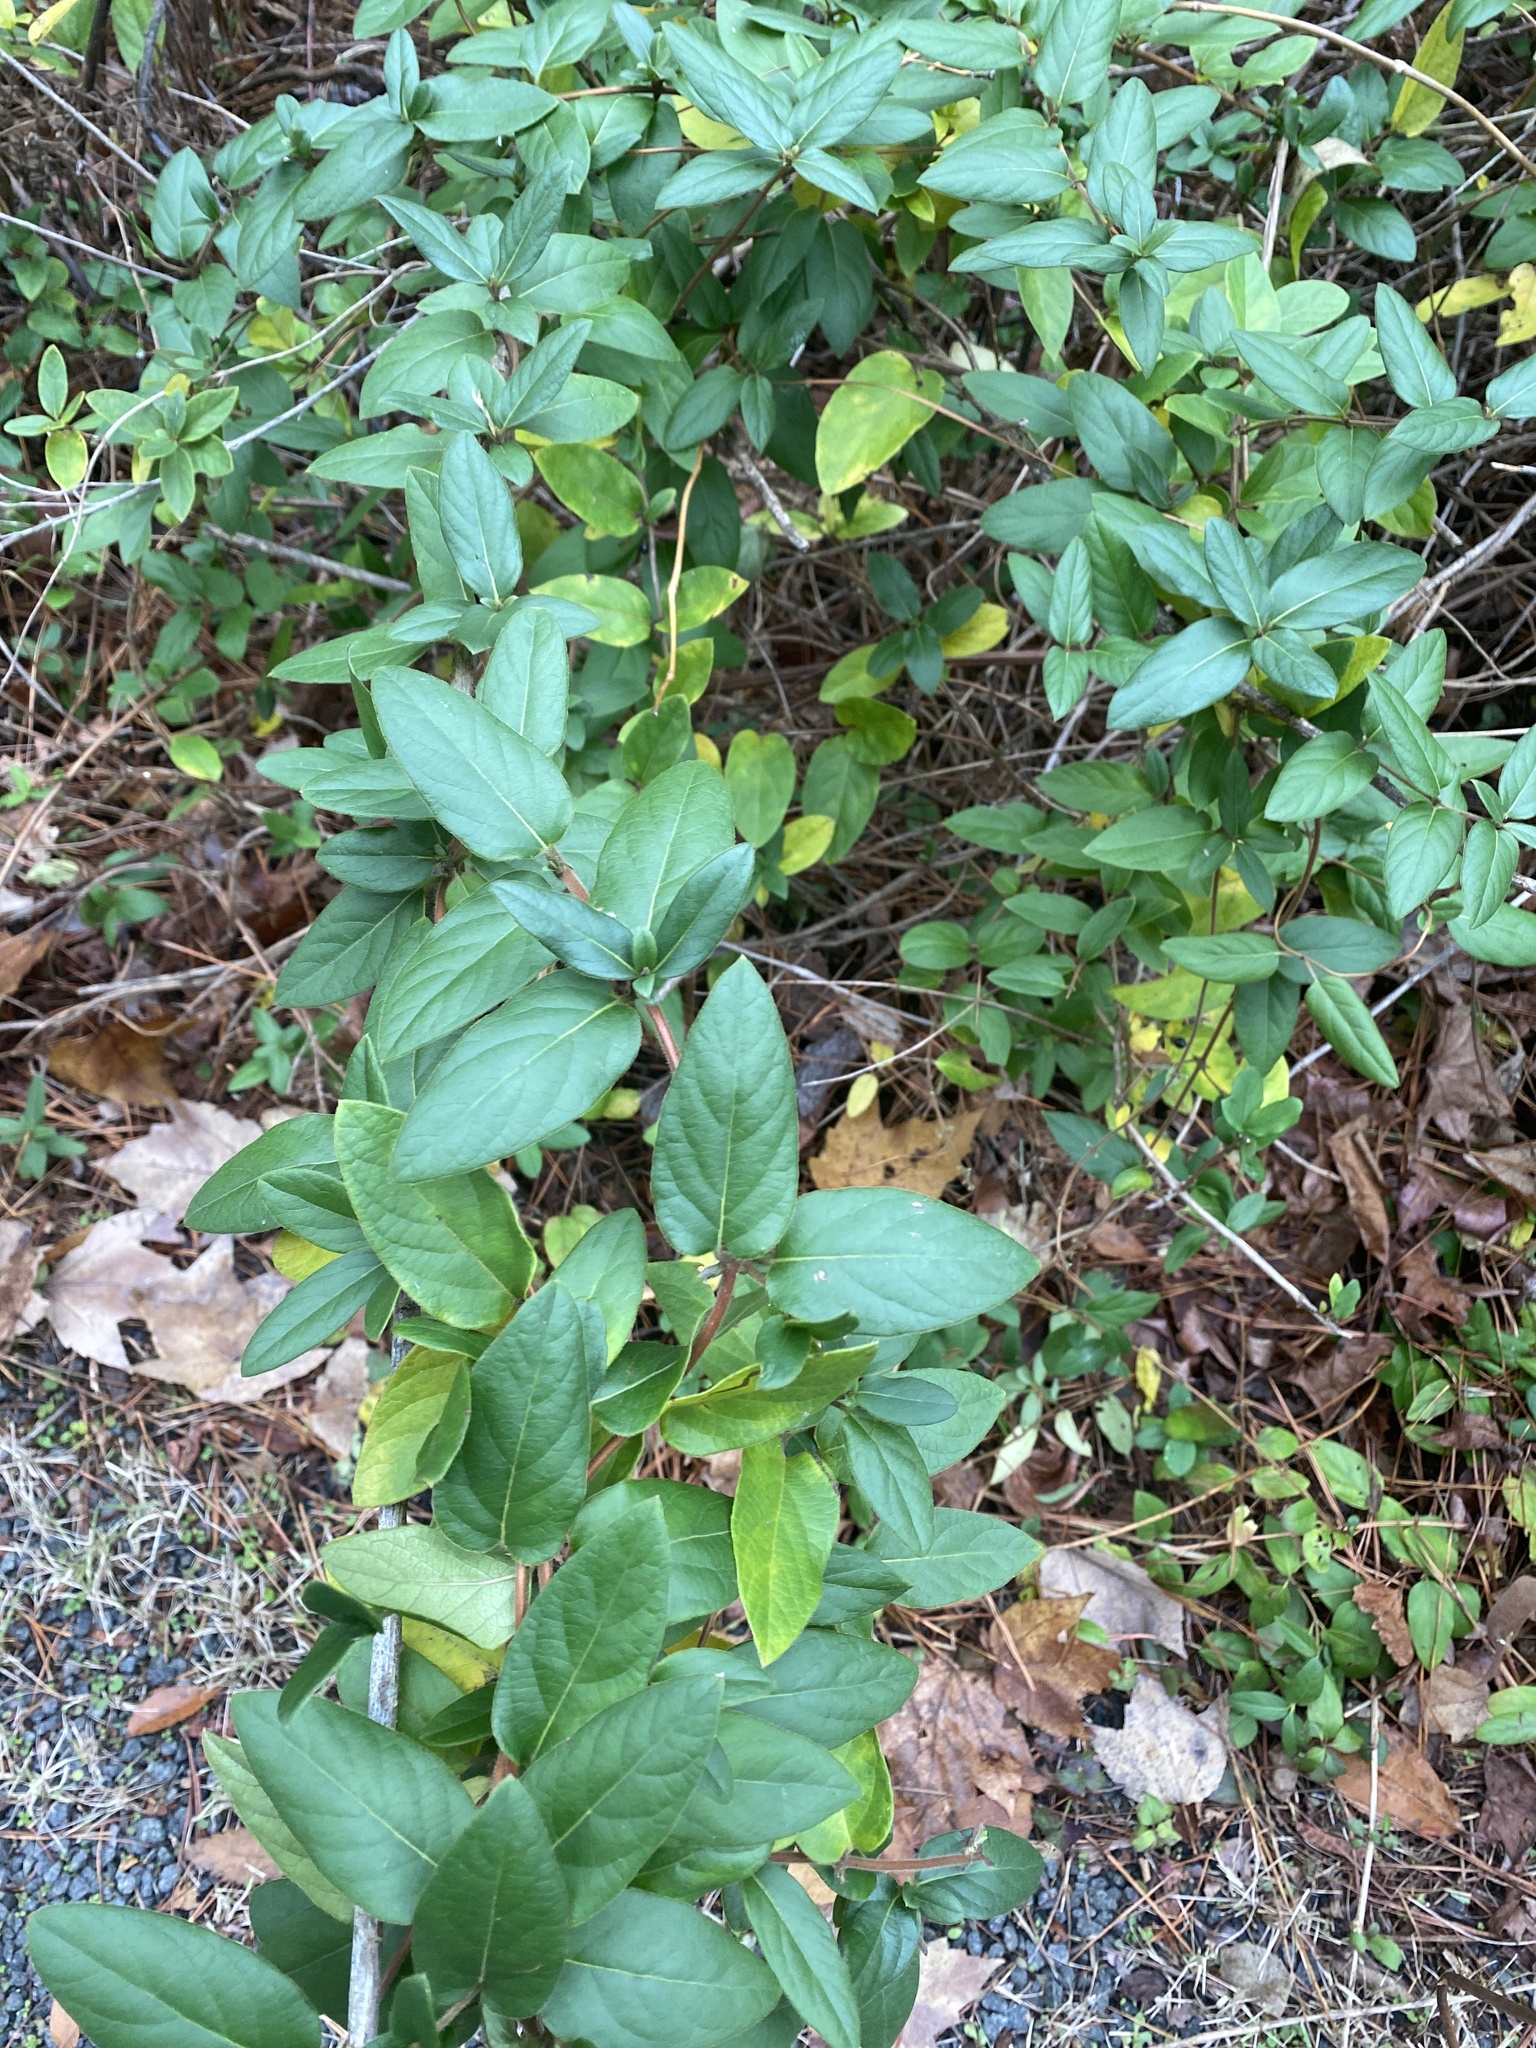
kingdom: Plantae
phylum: Tracheophyta
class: Magnoliopsida
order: Dipsacales
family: Caprifoliaceae
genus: Lonicera
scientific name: Lonicera japonica
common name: Japanese honeysuckle
